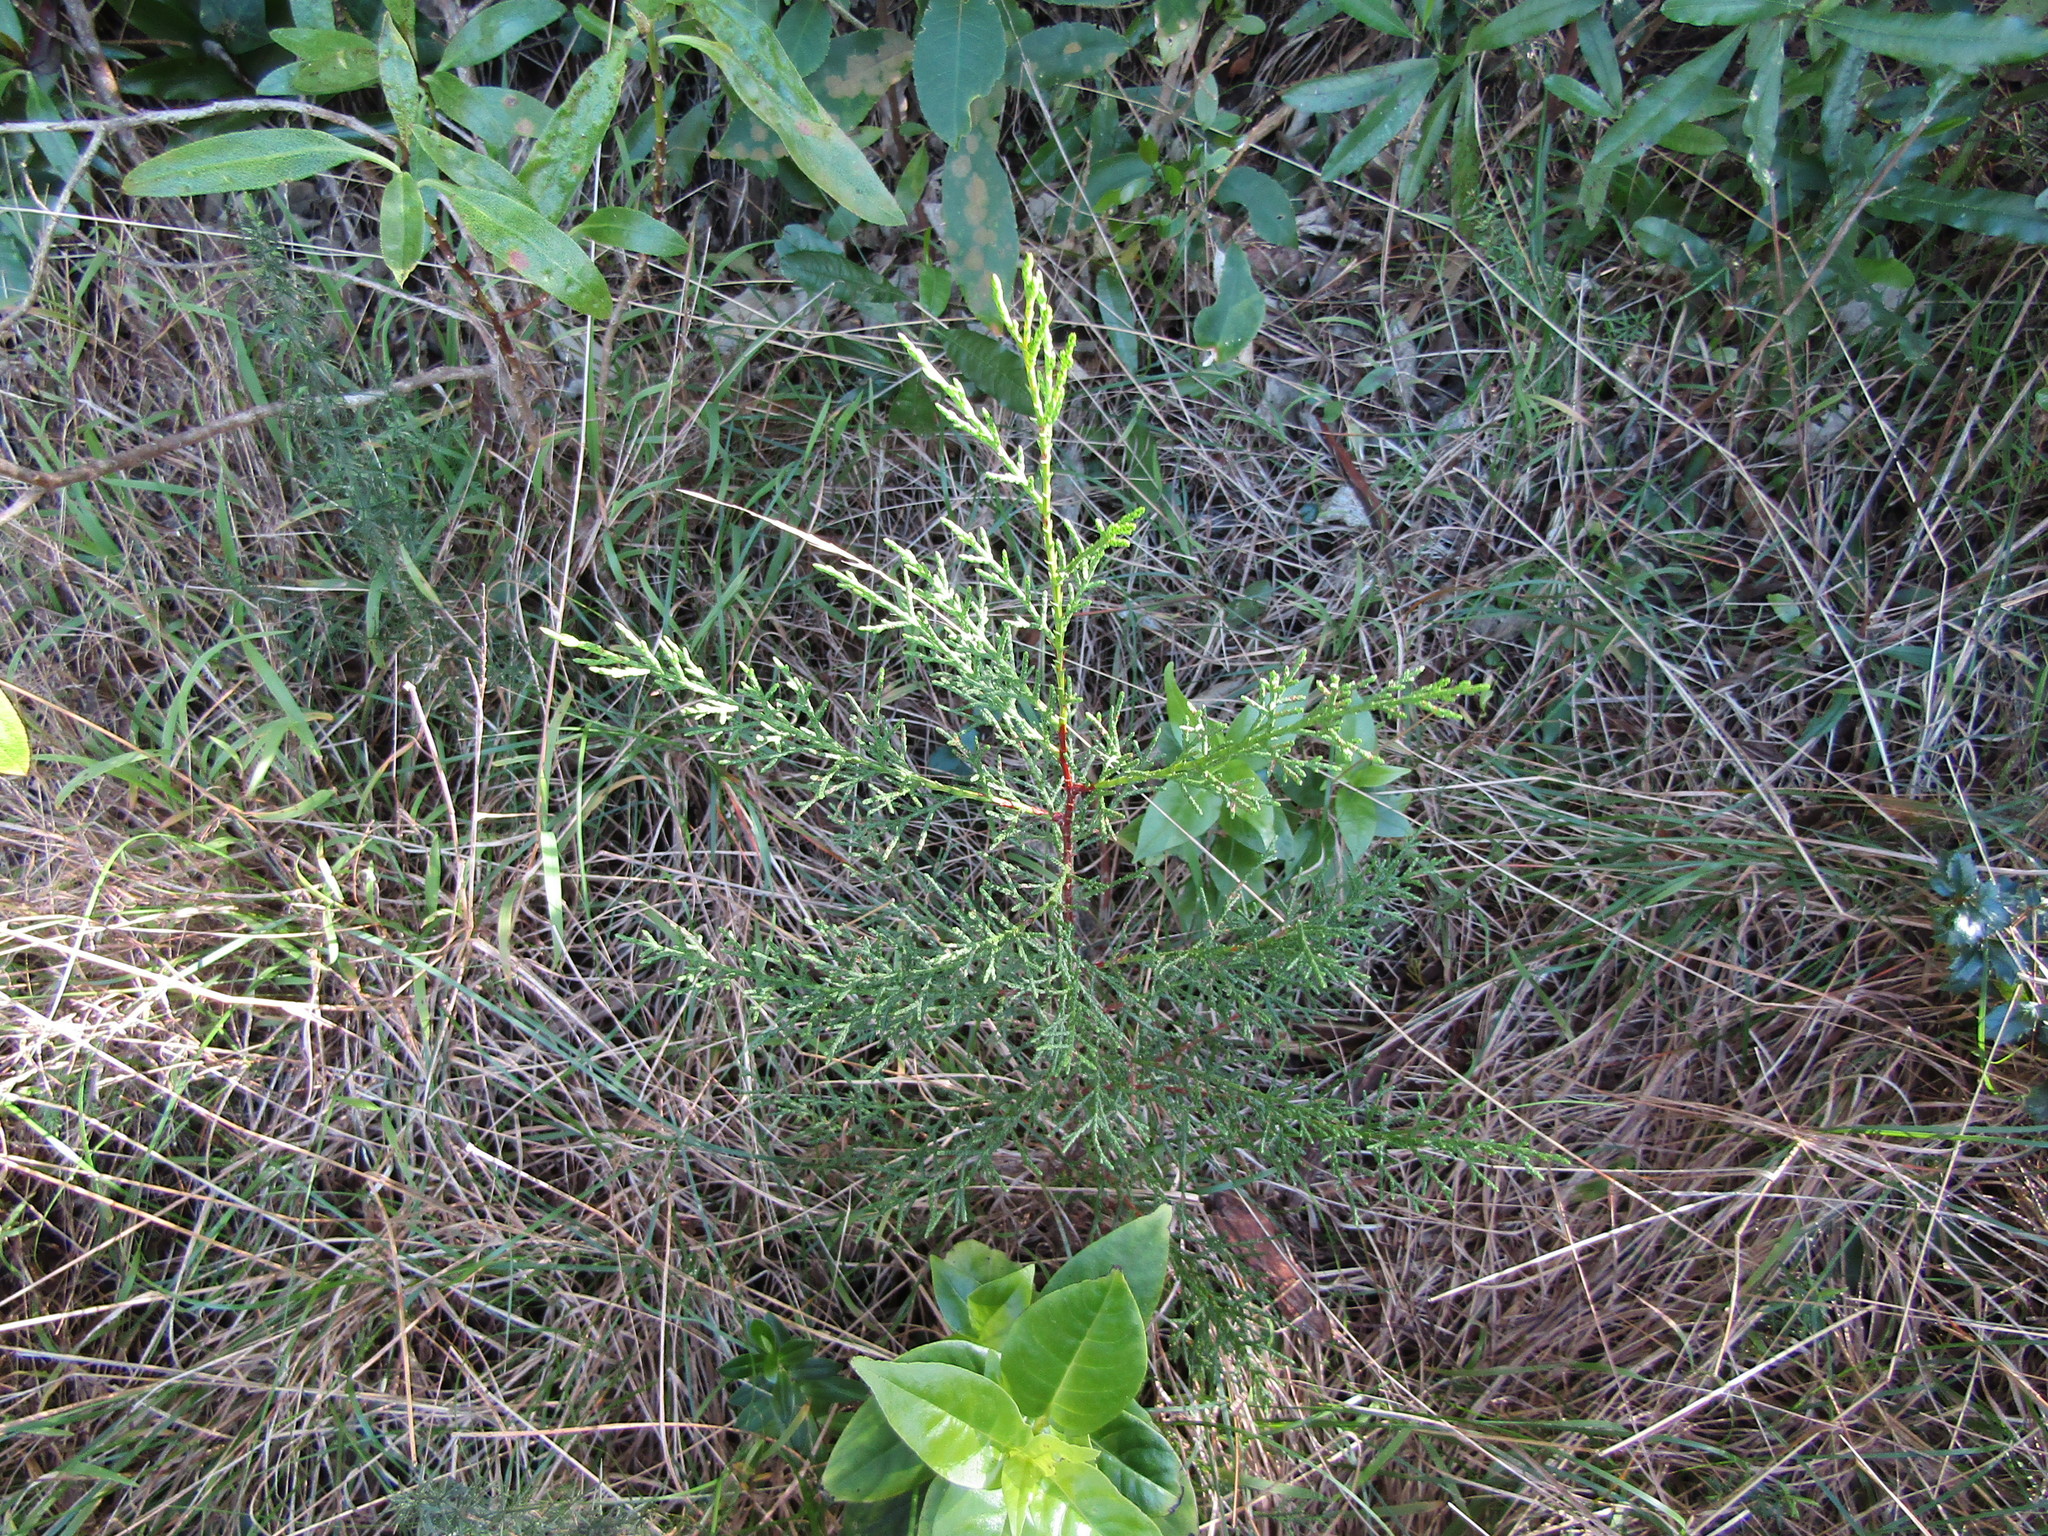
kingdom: Plantae
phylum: Tracheophyta
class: Pinopsida
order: Pinales
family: Cupressaceae
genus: Cupressus
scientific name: Cupressus macrocarpa
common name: Monterey cypress
